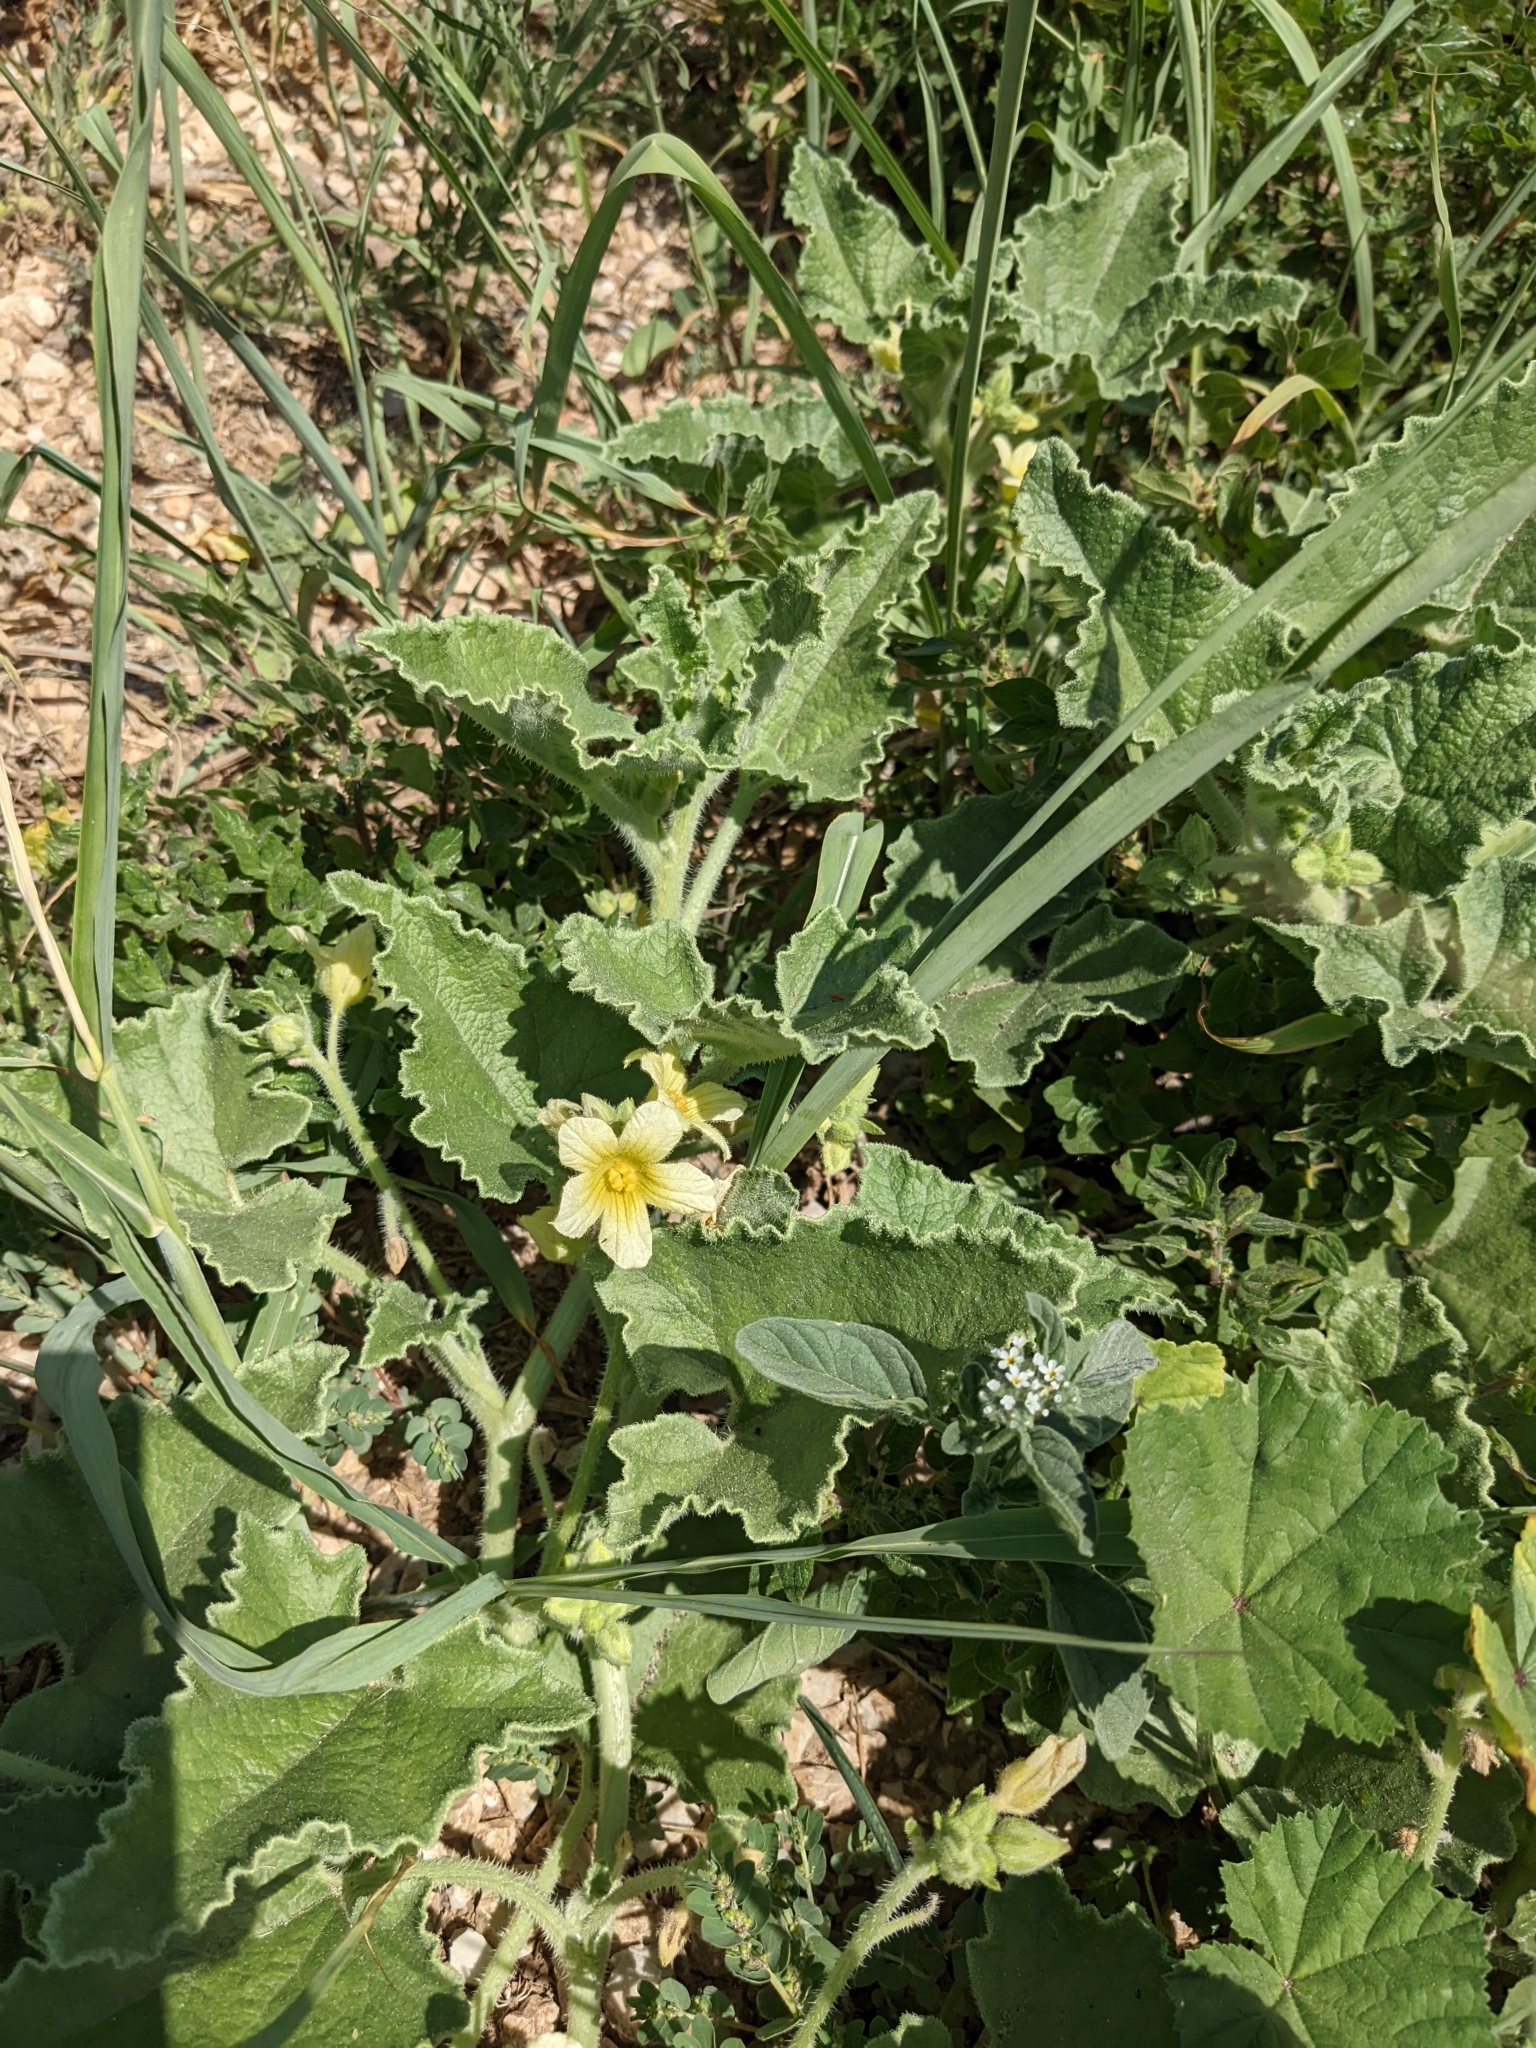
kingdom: Plantae
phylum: Tracheophyta
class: Magnoliopsida
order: Cucurbitales
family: Cucurbitaceae
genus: Ecballium
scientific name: Ecballium elaterium
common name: Squirting cucumber
